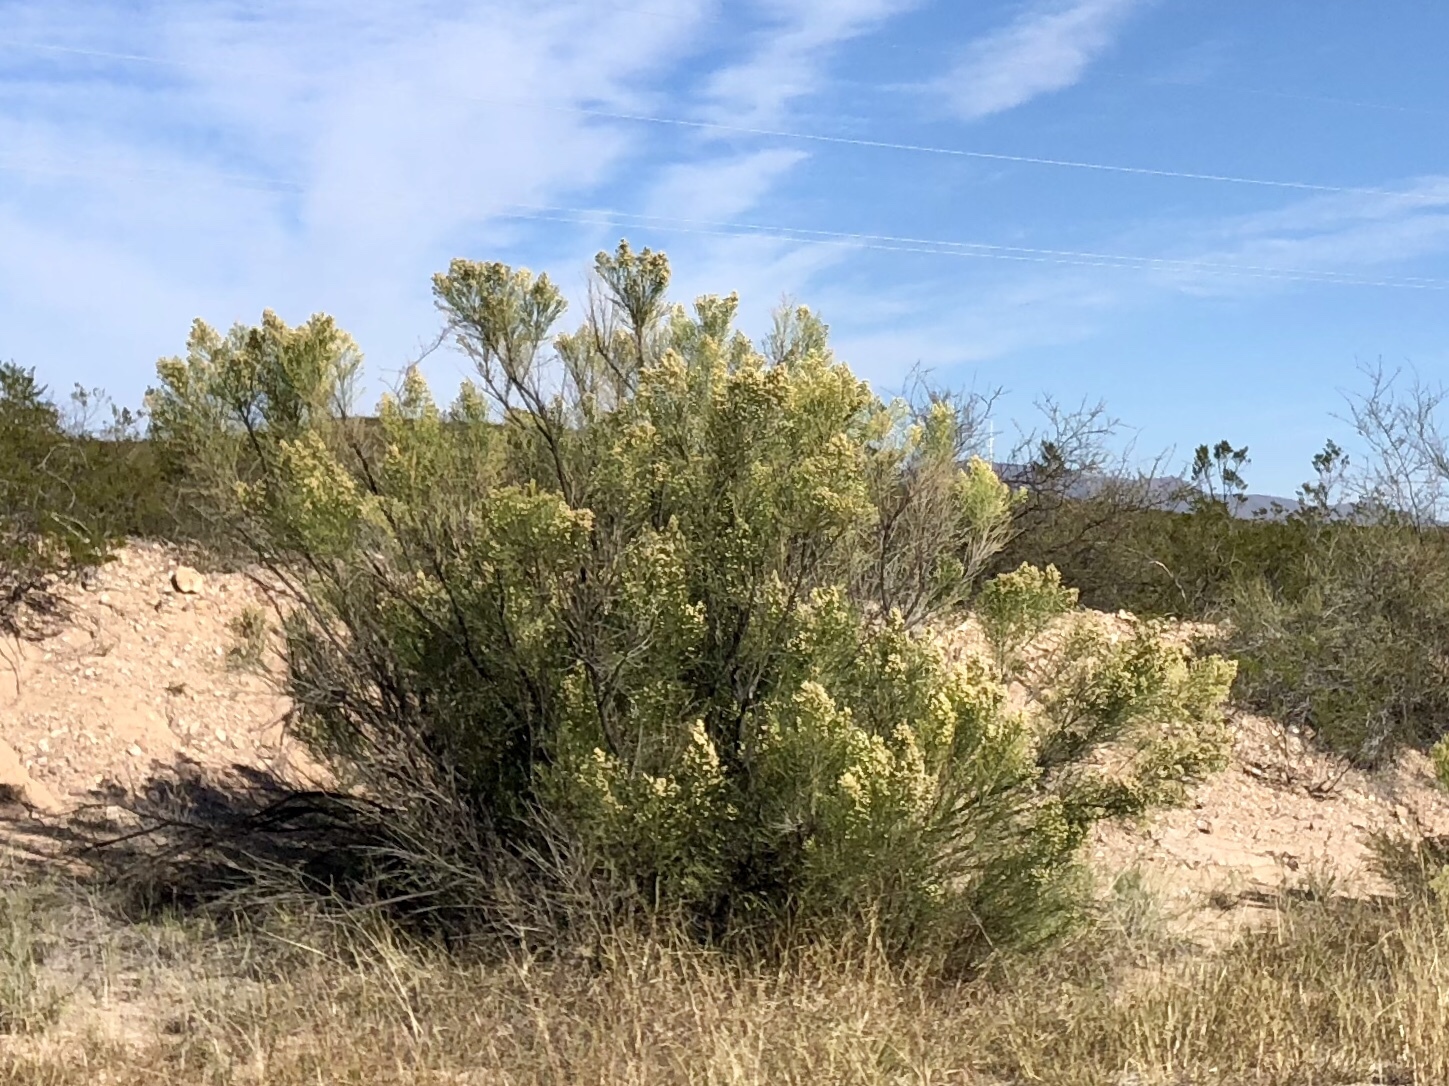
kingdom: Plantae
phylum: Tracheophyta
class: Magnoliopsida
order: Asterales
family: Asteraceae
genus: Baccharis
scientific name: Baccharis sarothroides
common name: Desert-broom
